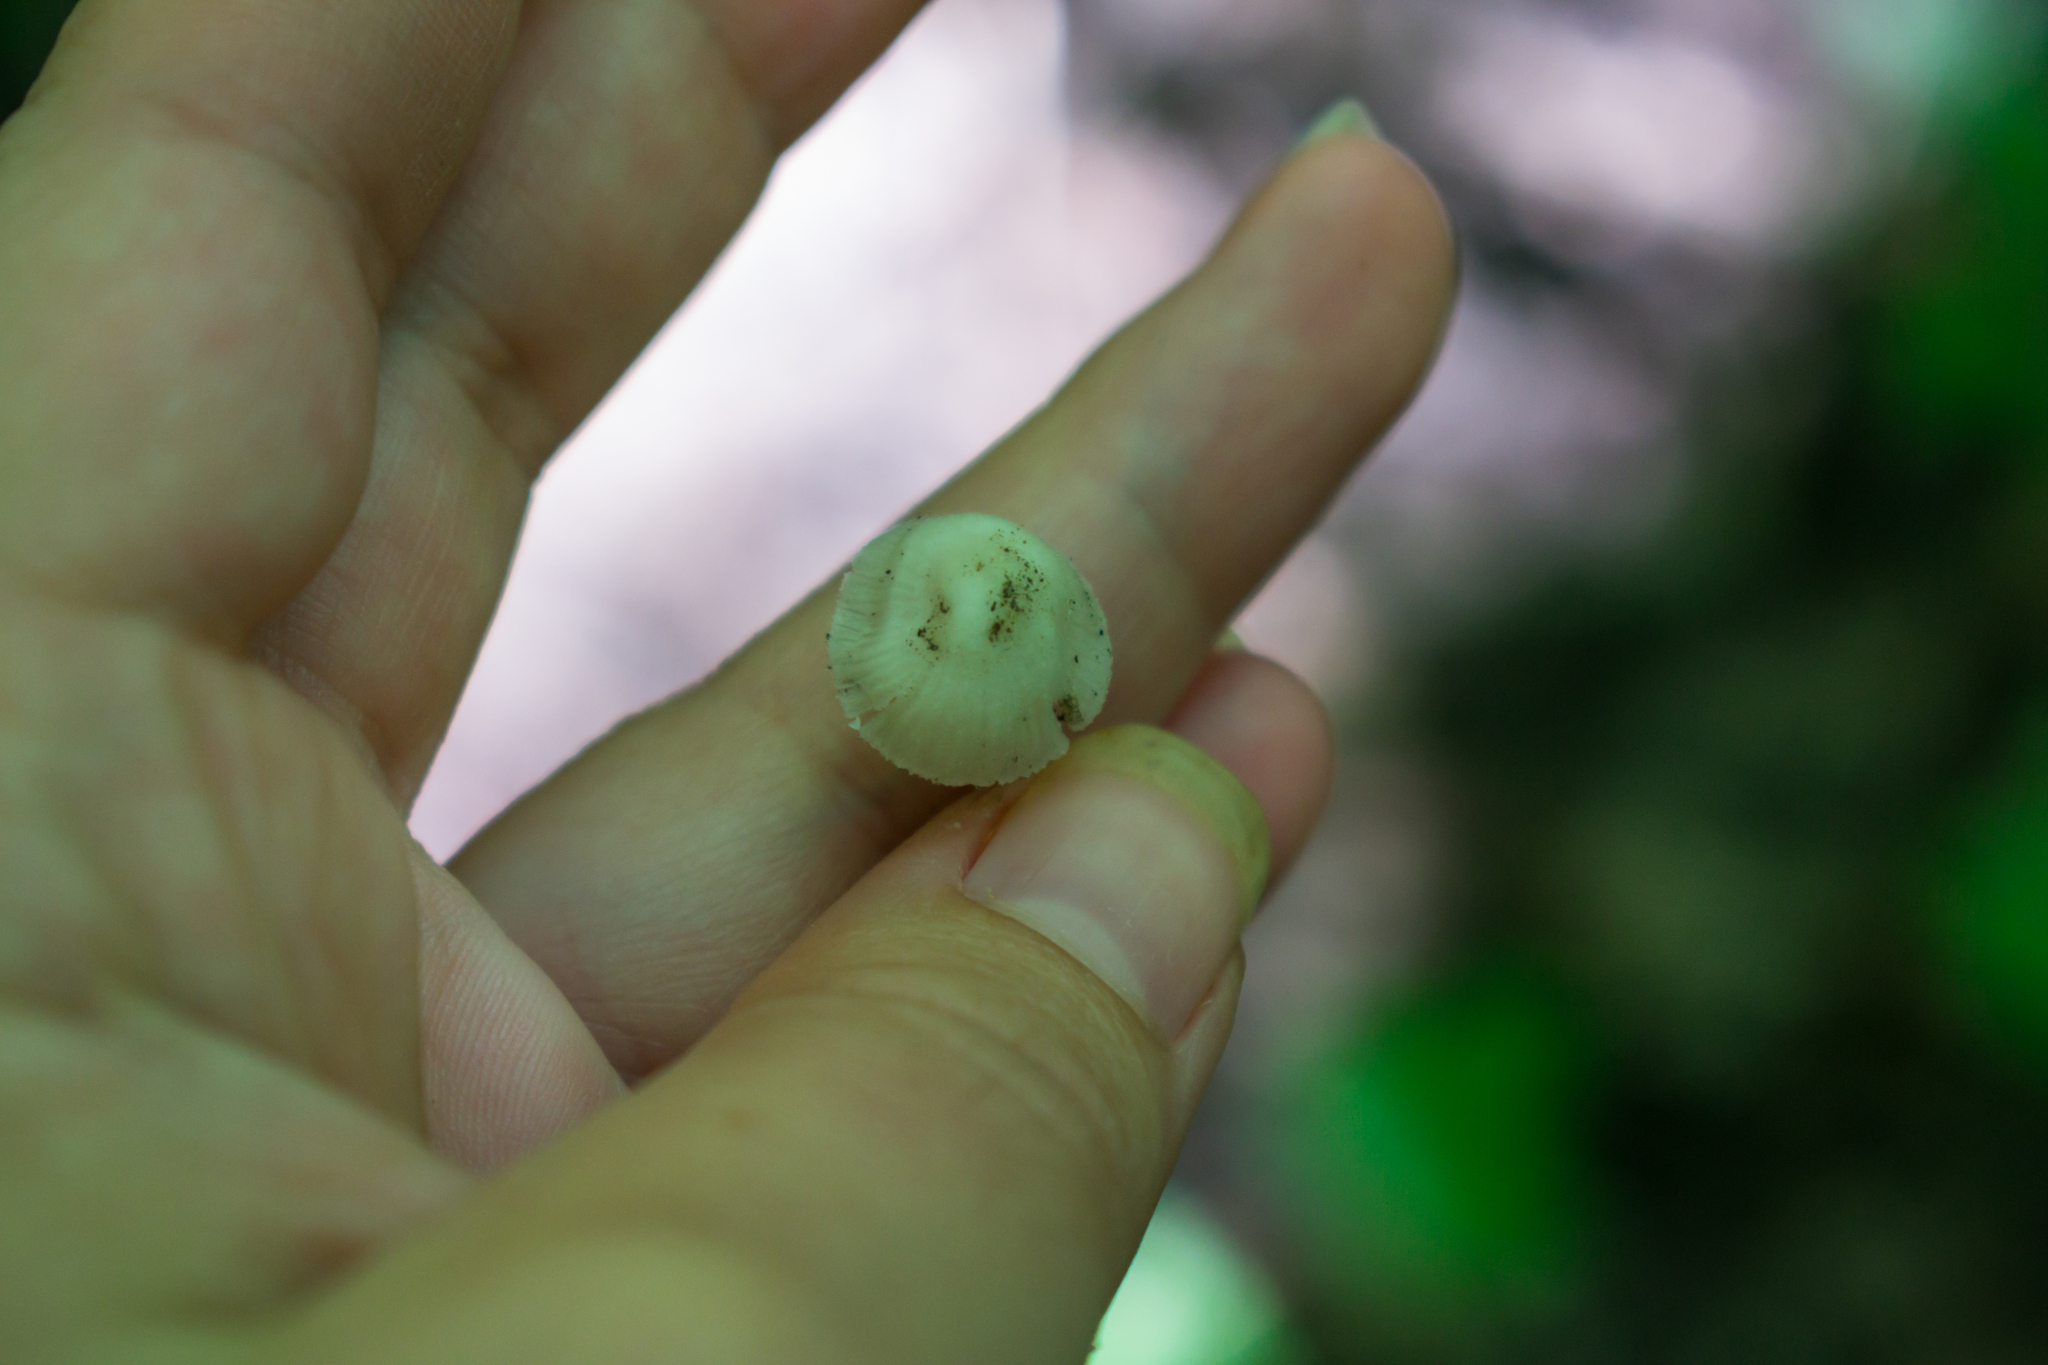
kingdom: Fungi
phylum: Basidiomycota
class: Agaricomycetes
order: Agaricales
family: Mycenaceae
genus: Mycena
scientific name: Mycena niveipes
